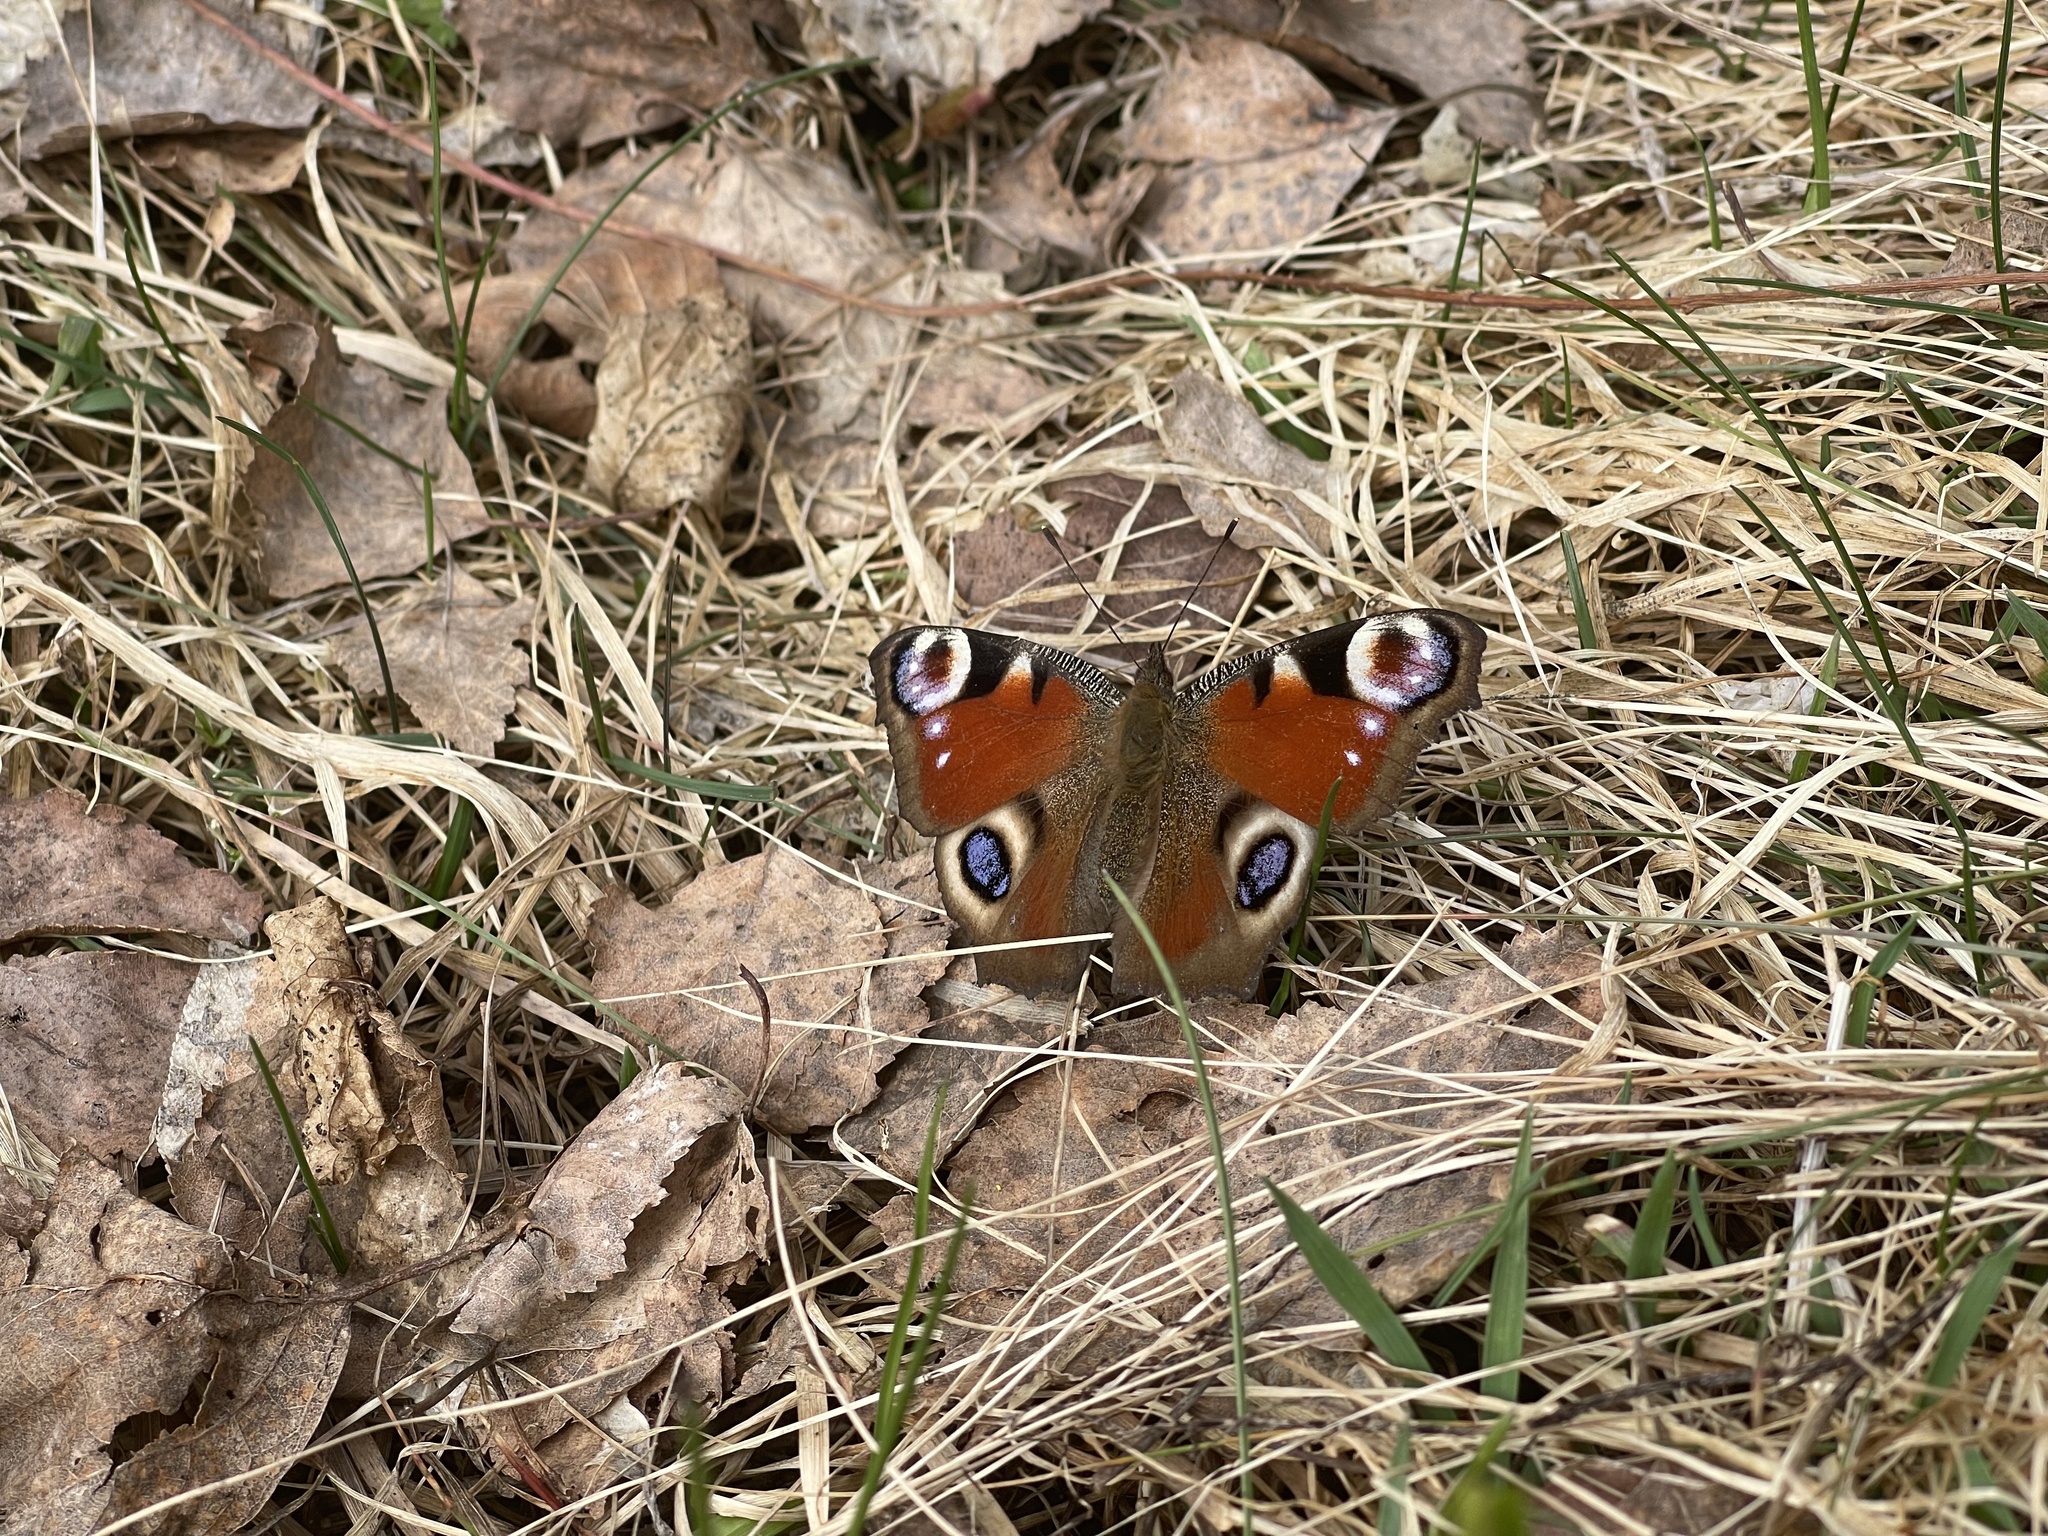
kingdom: Animalia
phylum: Arthropoda
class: Insecta
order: Lepidoptera
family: Nymphalidae
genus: Aglais
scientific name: Aglais io
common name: Peacock
